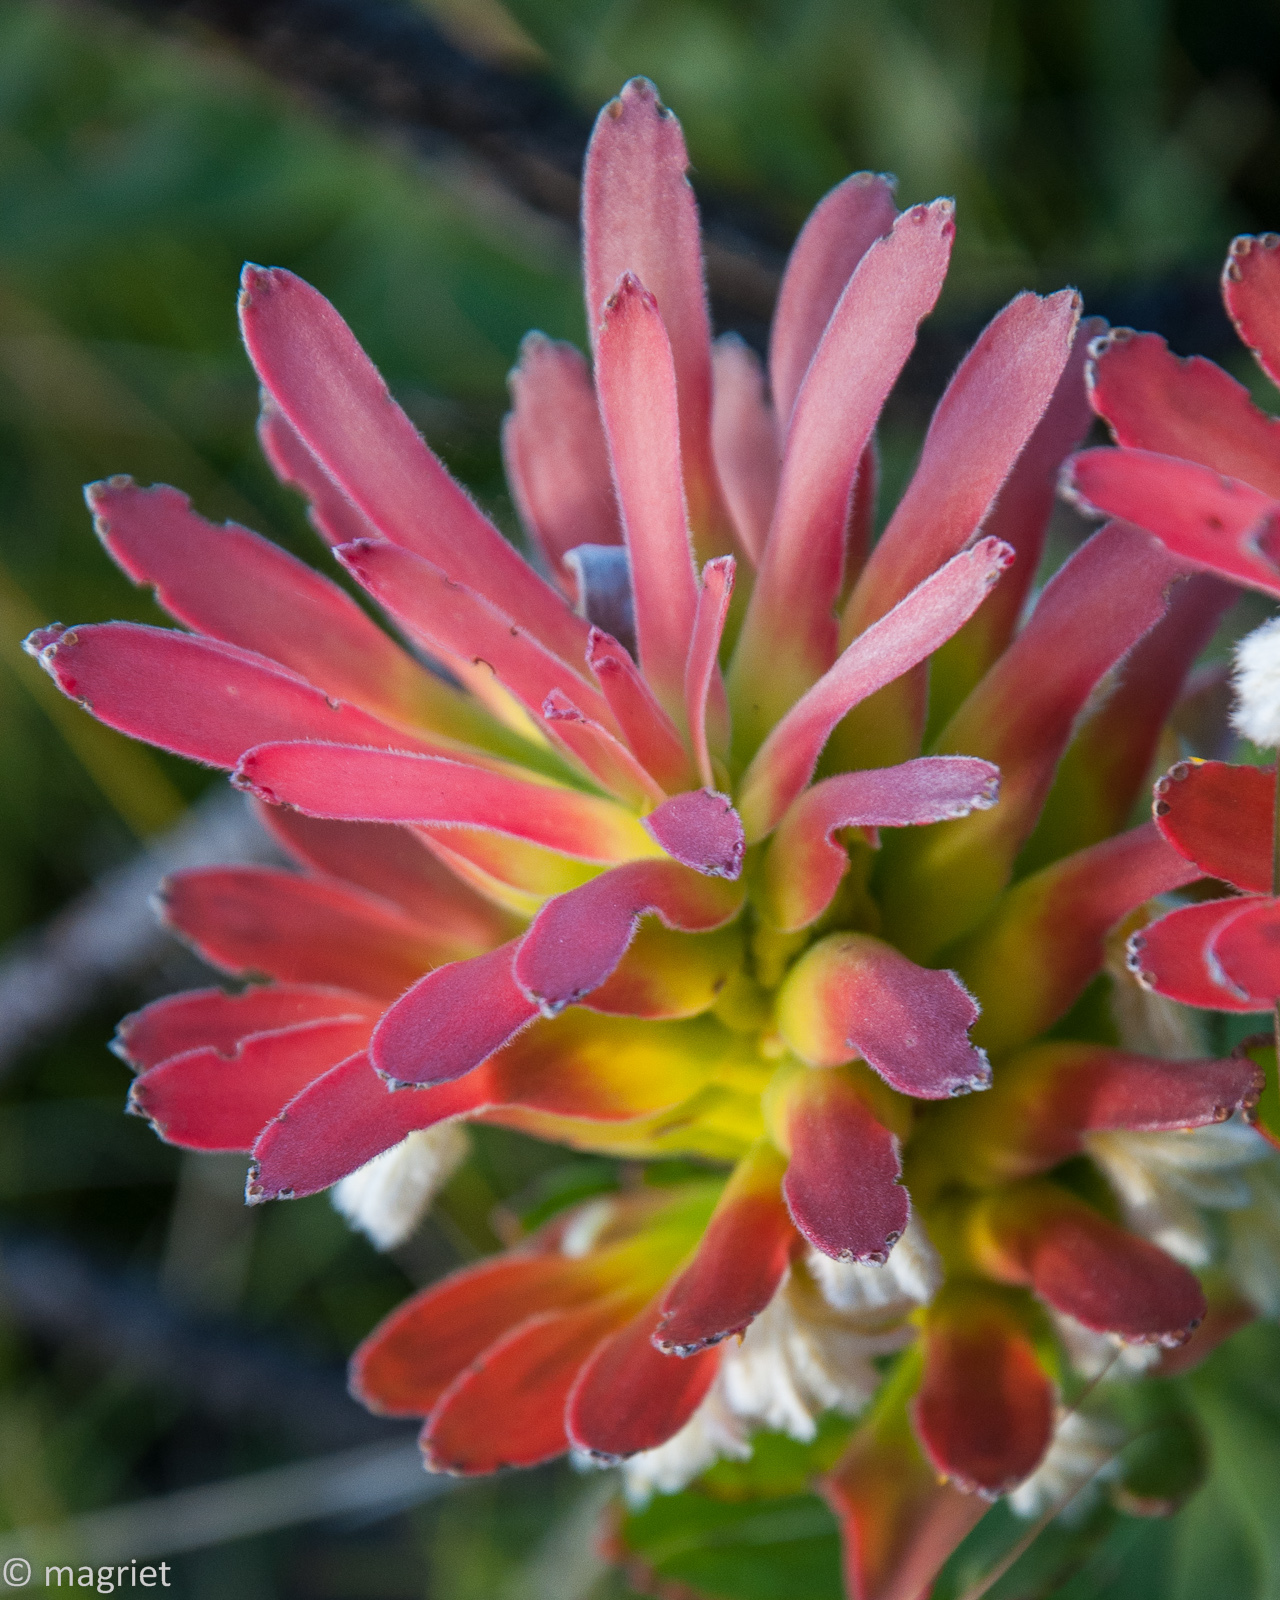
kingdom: Plantae
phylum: Tracheophyta
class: Magnoliopsida
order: Proteales
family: Proteaceae
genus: Mimetes
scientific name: Mimetes cucullatus
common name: Common pagoda
